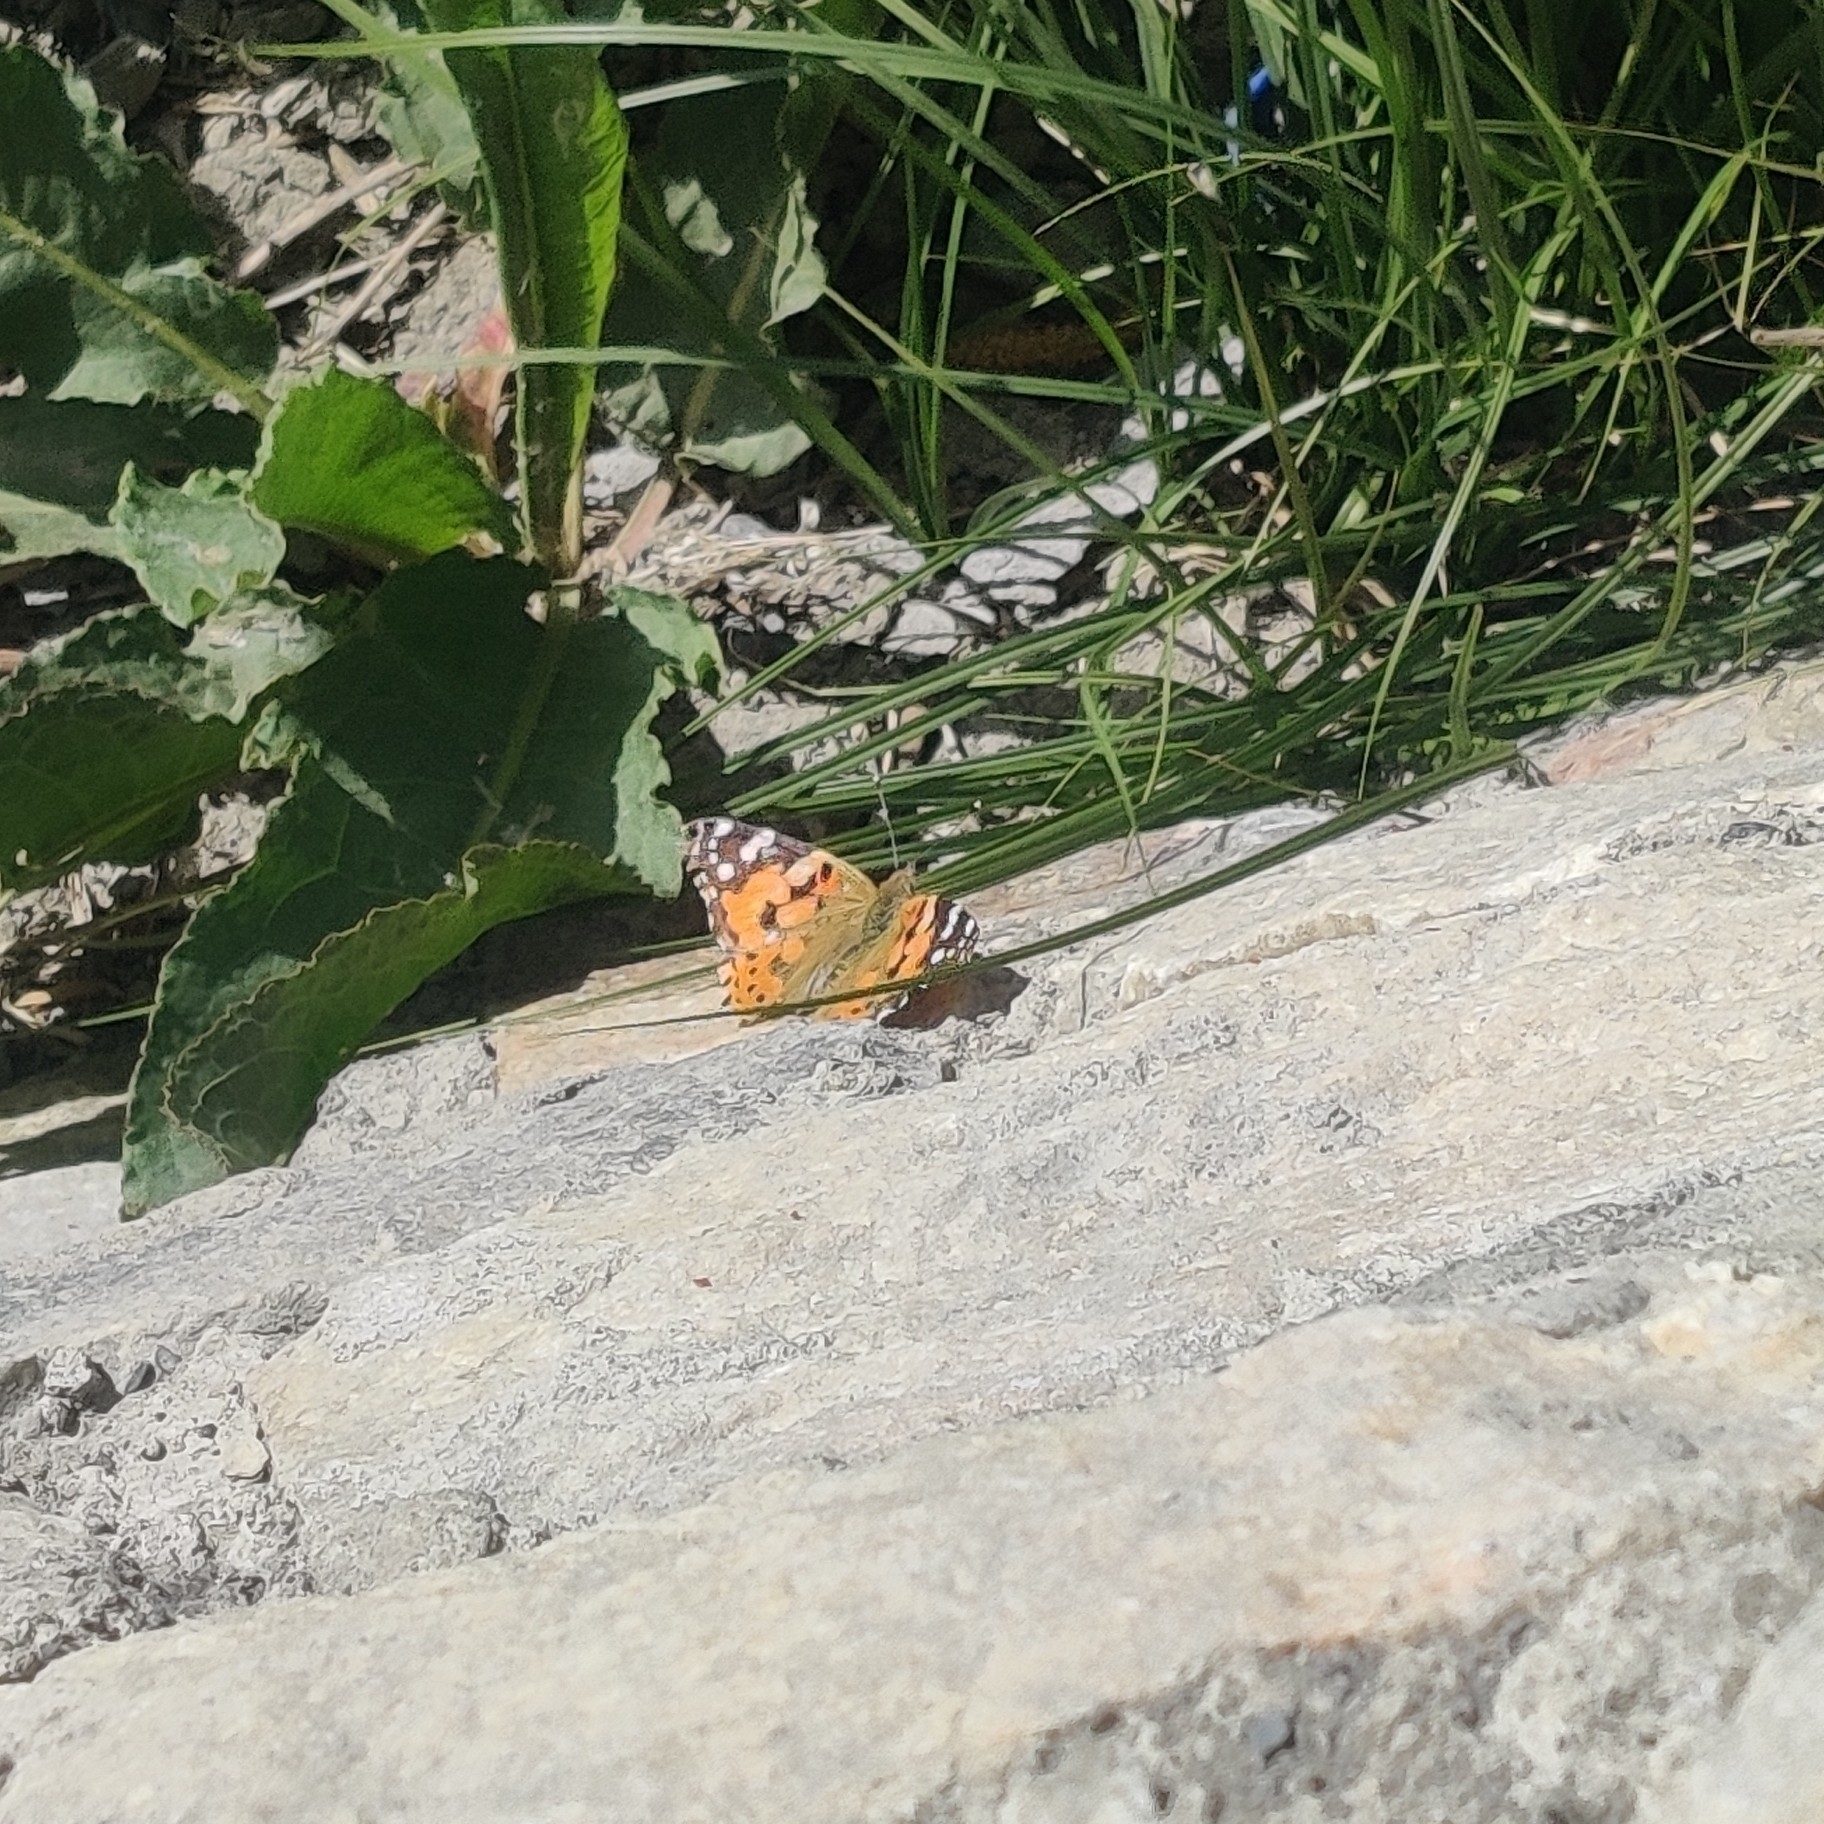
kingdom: Animalia
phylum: Arthropoda
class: Insecta
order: Lepidoptera
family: Nymphalidae
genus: Vanessa
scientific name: Vanessa cardui
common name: Painted lady
